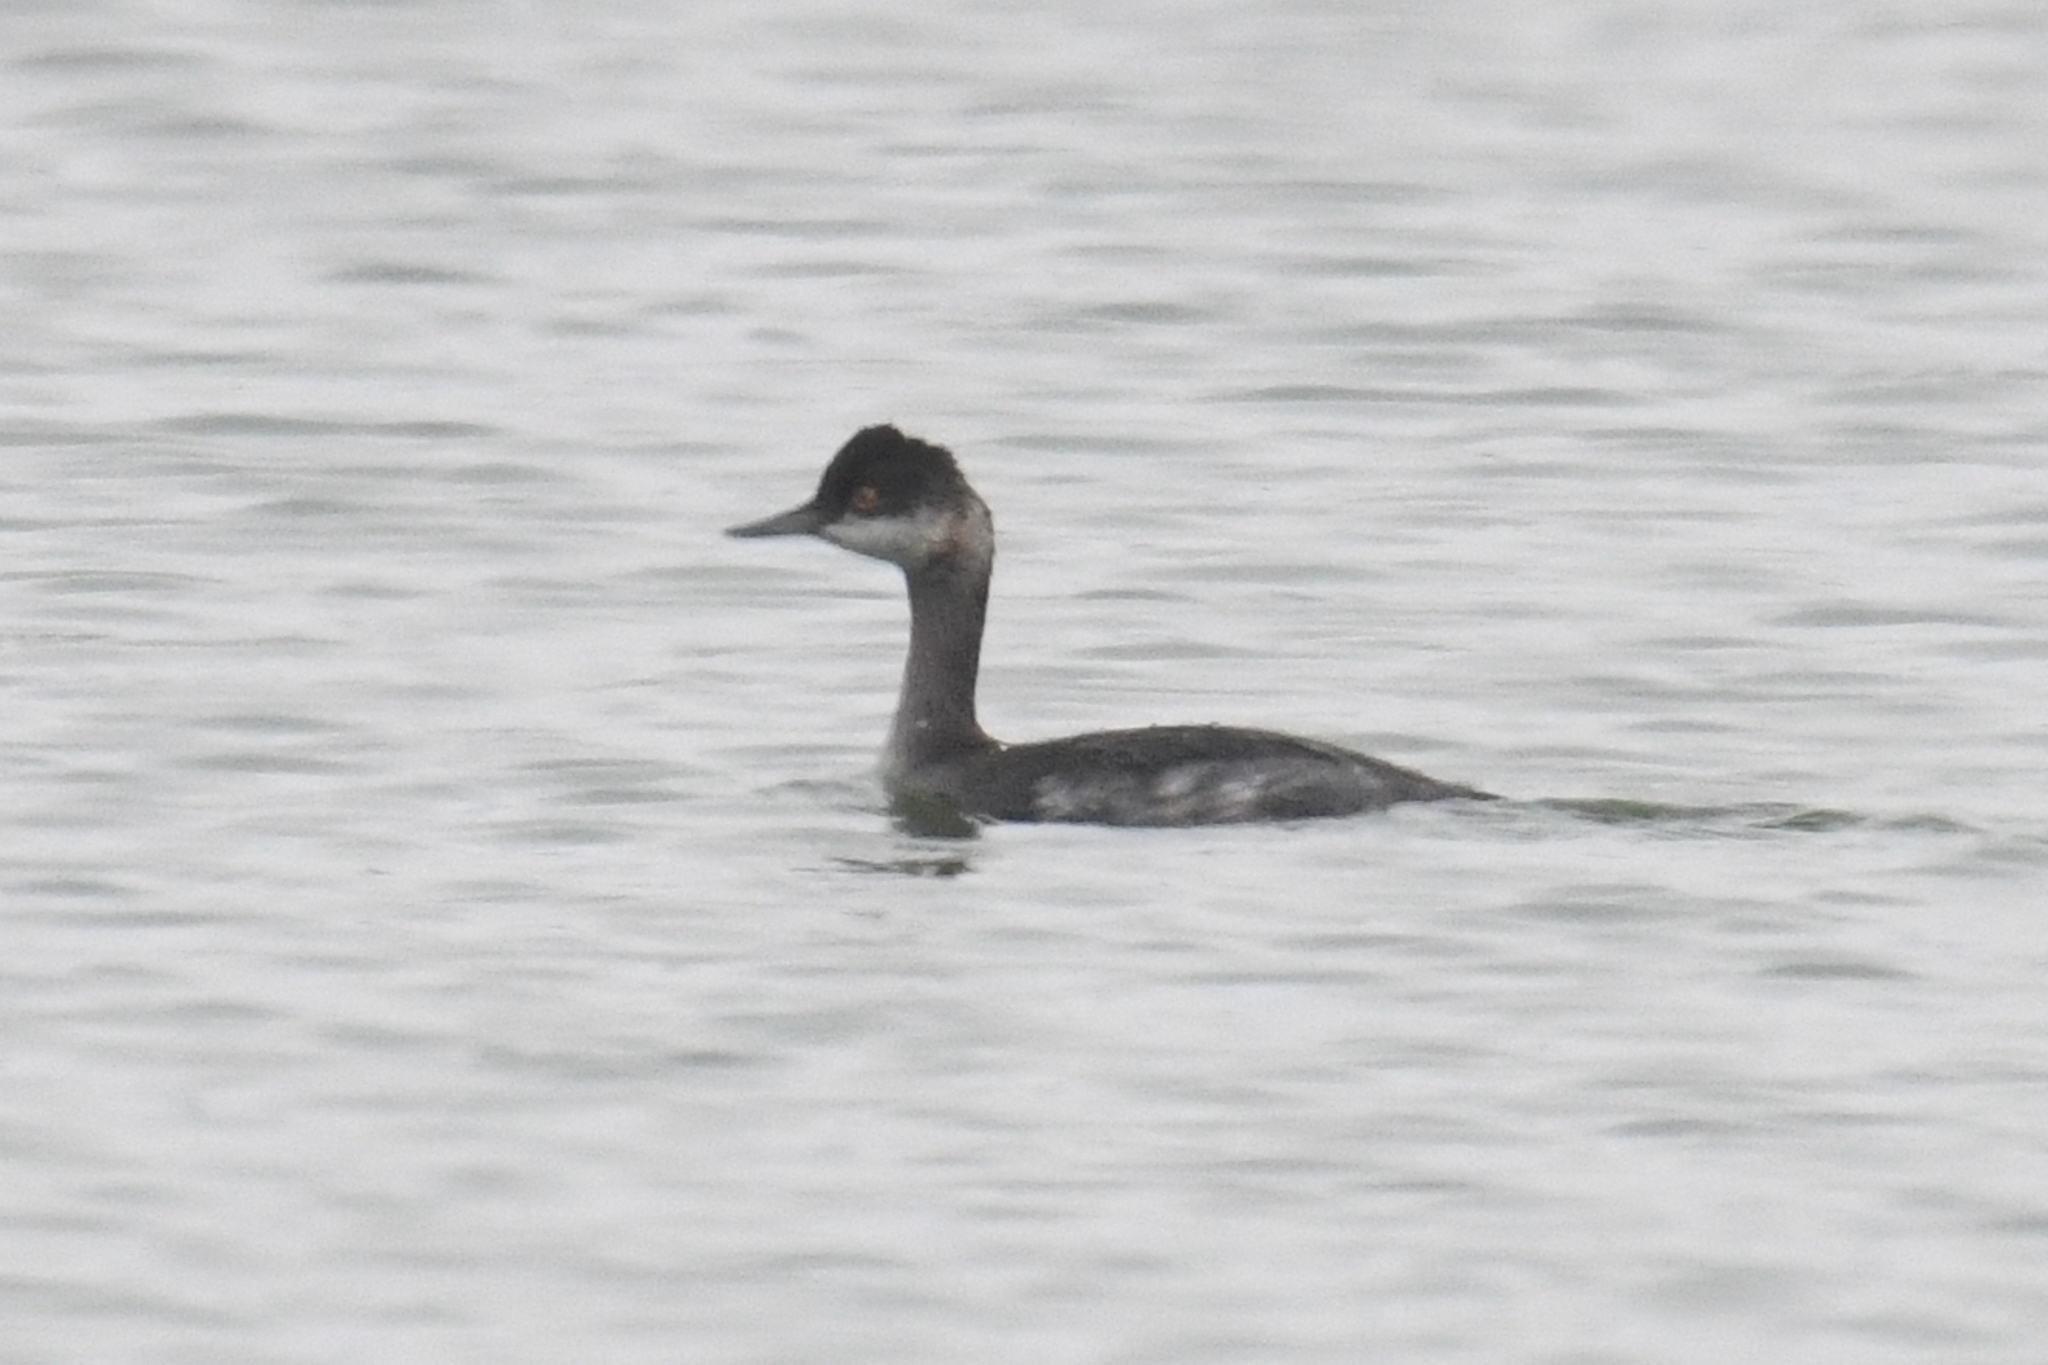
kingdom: Animalia
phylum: Chordata
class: Aves
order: Podicipediformes
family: Podicipedidae
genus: Podiceps
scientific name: Podiceps nigricollis
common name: Black-necked grebe
